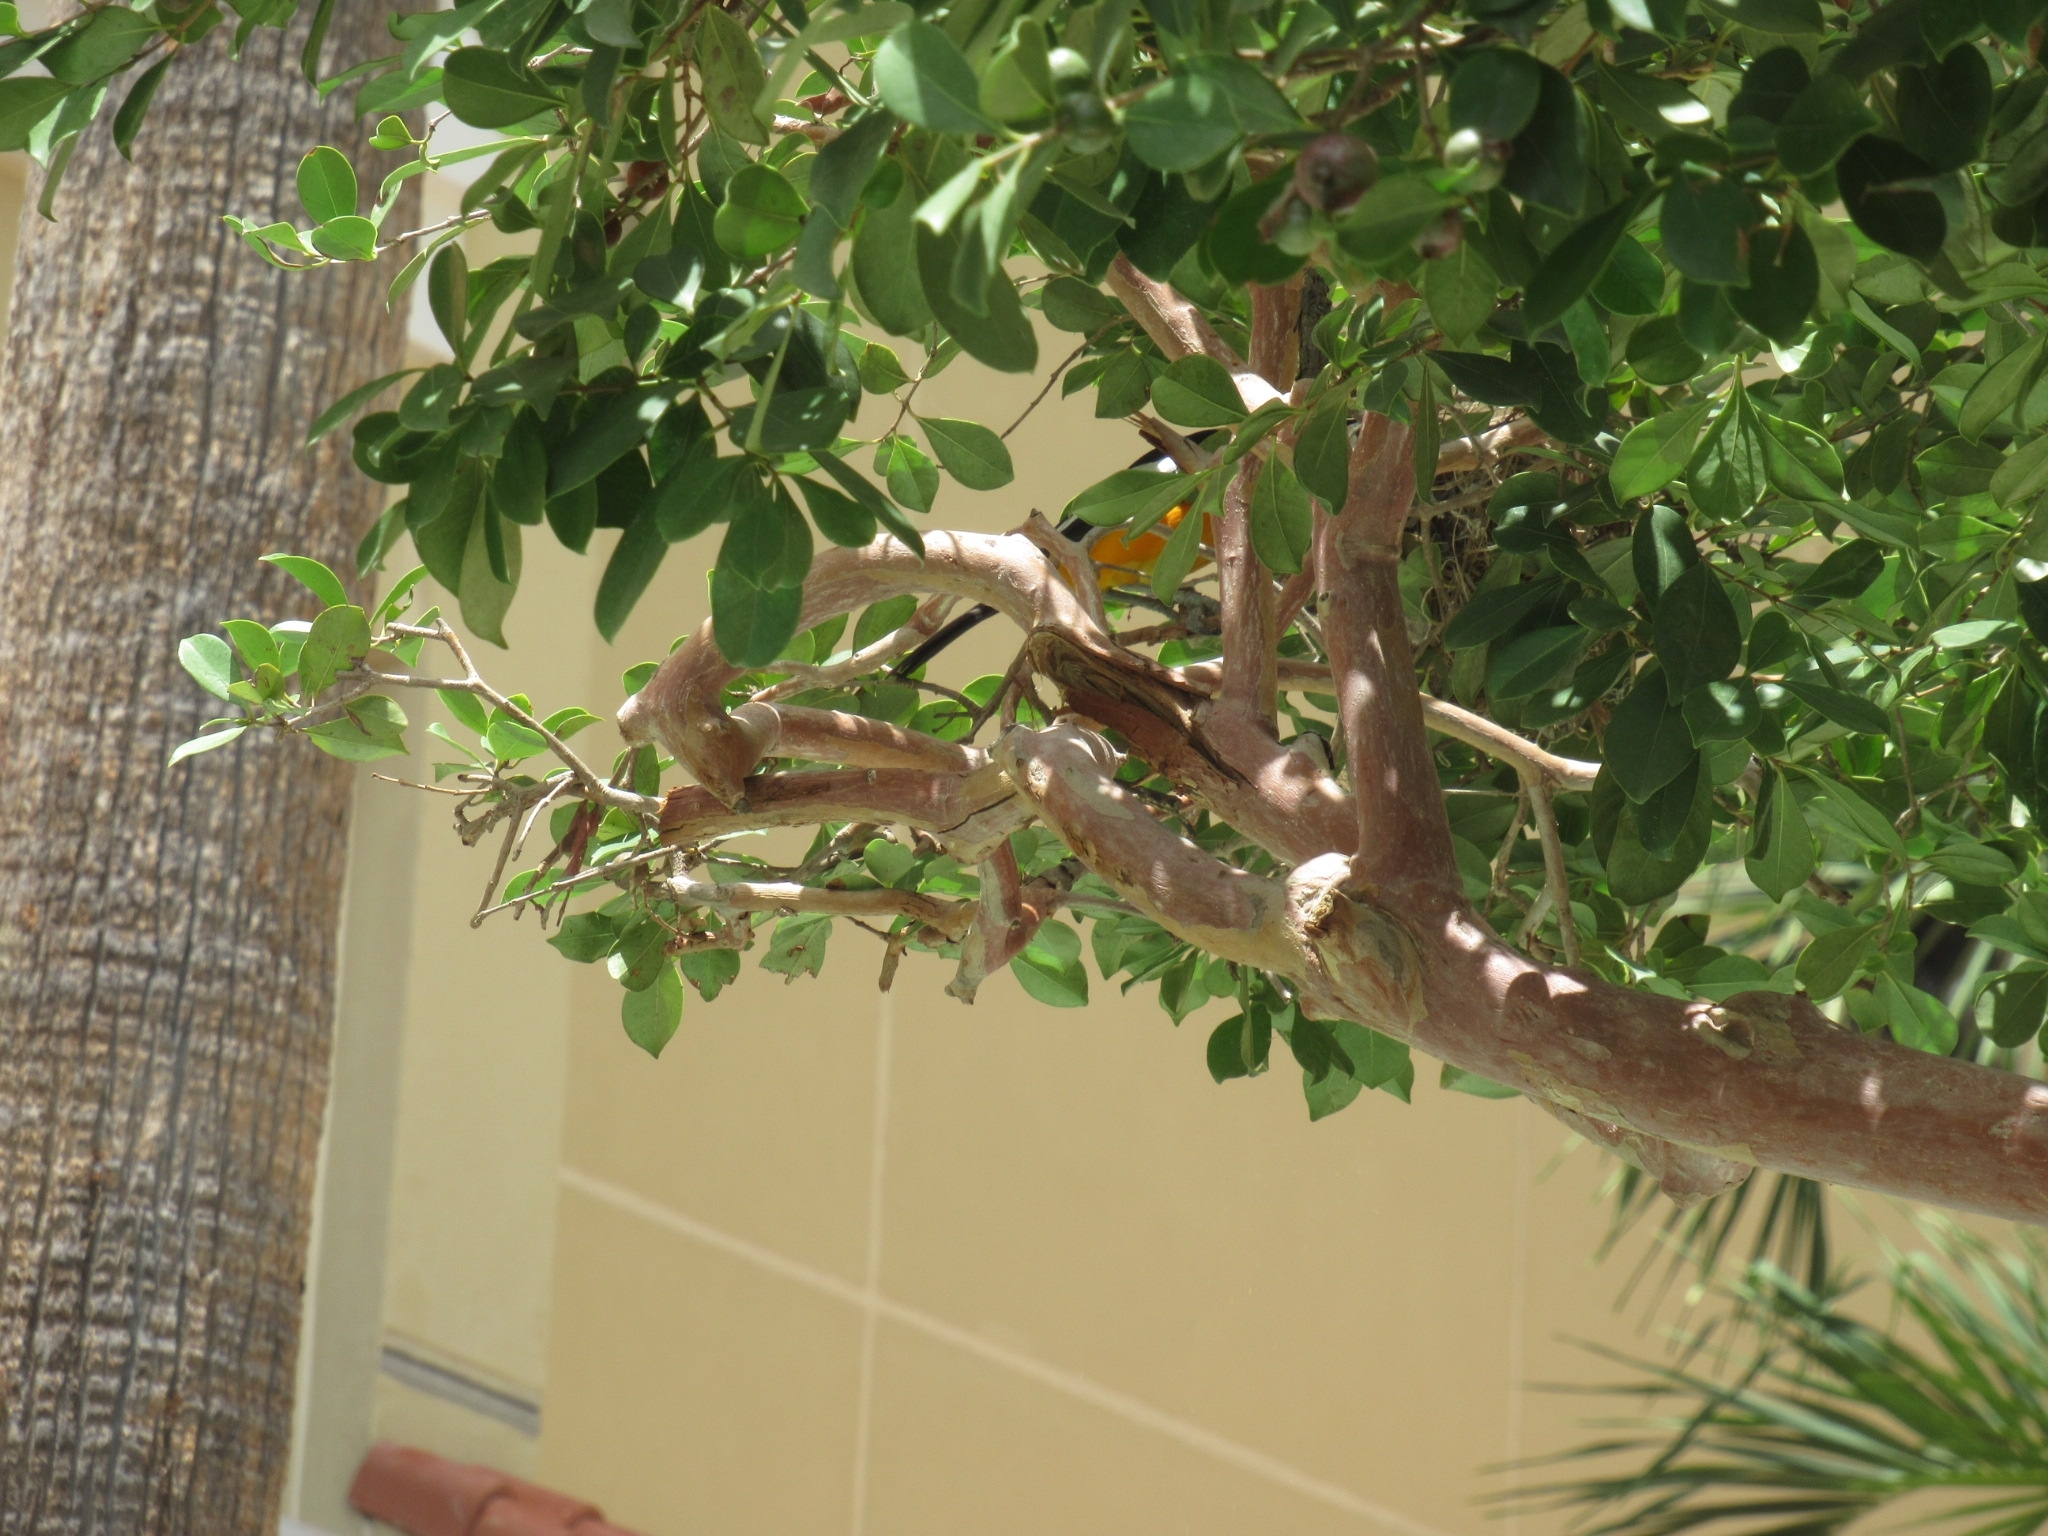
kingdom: Animalia
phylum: Chordata
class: Aves
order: Passeriformes
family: Icteridae
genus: Icterus
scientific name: Icterus icterus
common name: Venezuelan troupial
